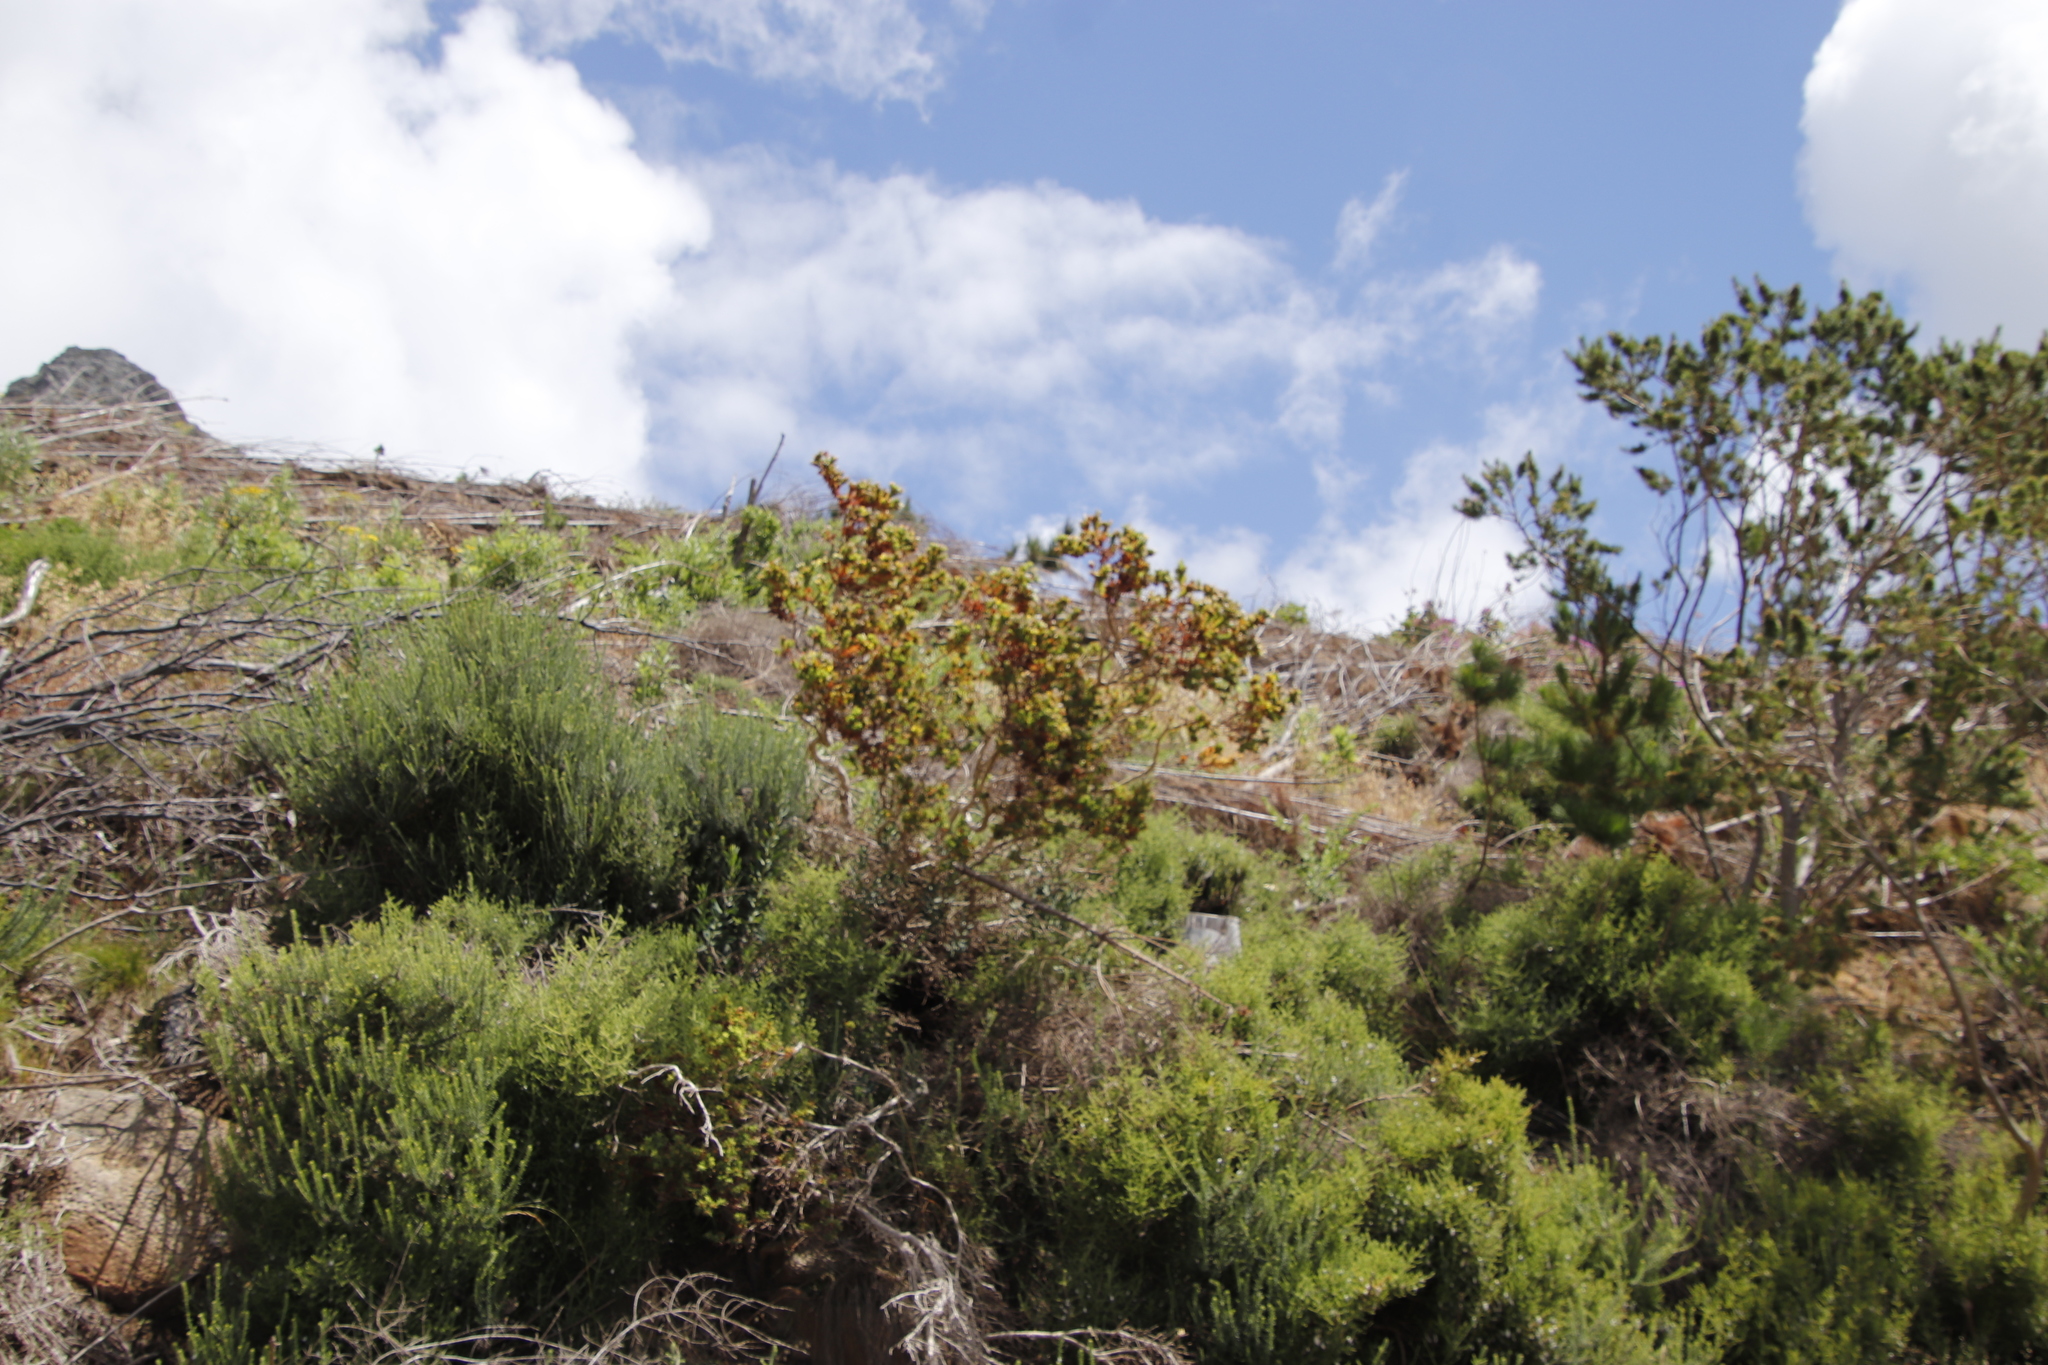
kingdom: Plantae
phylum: Tracheophyta
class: Magnoliopsida
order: Fabales
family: Fabaceae
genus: Aspalathus
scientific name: Aspalathus cordata
